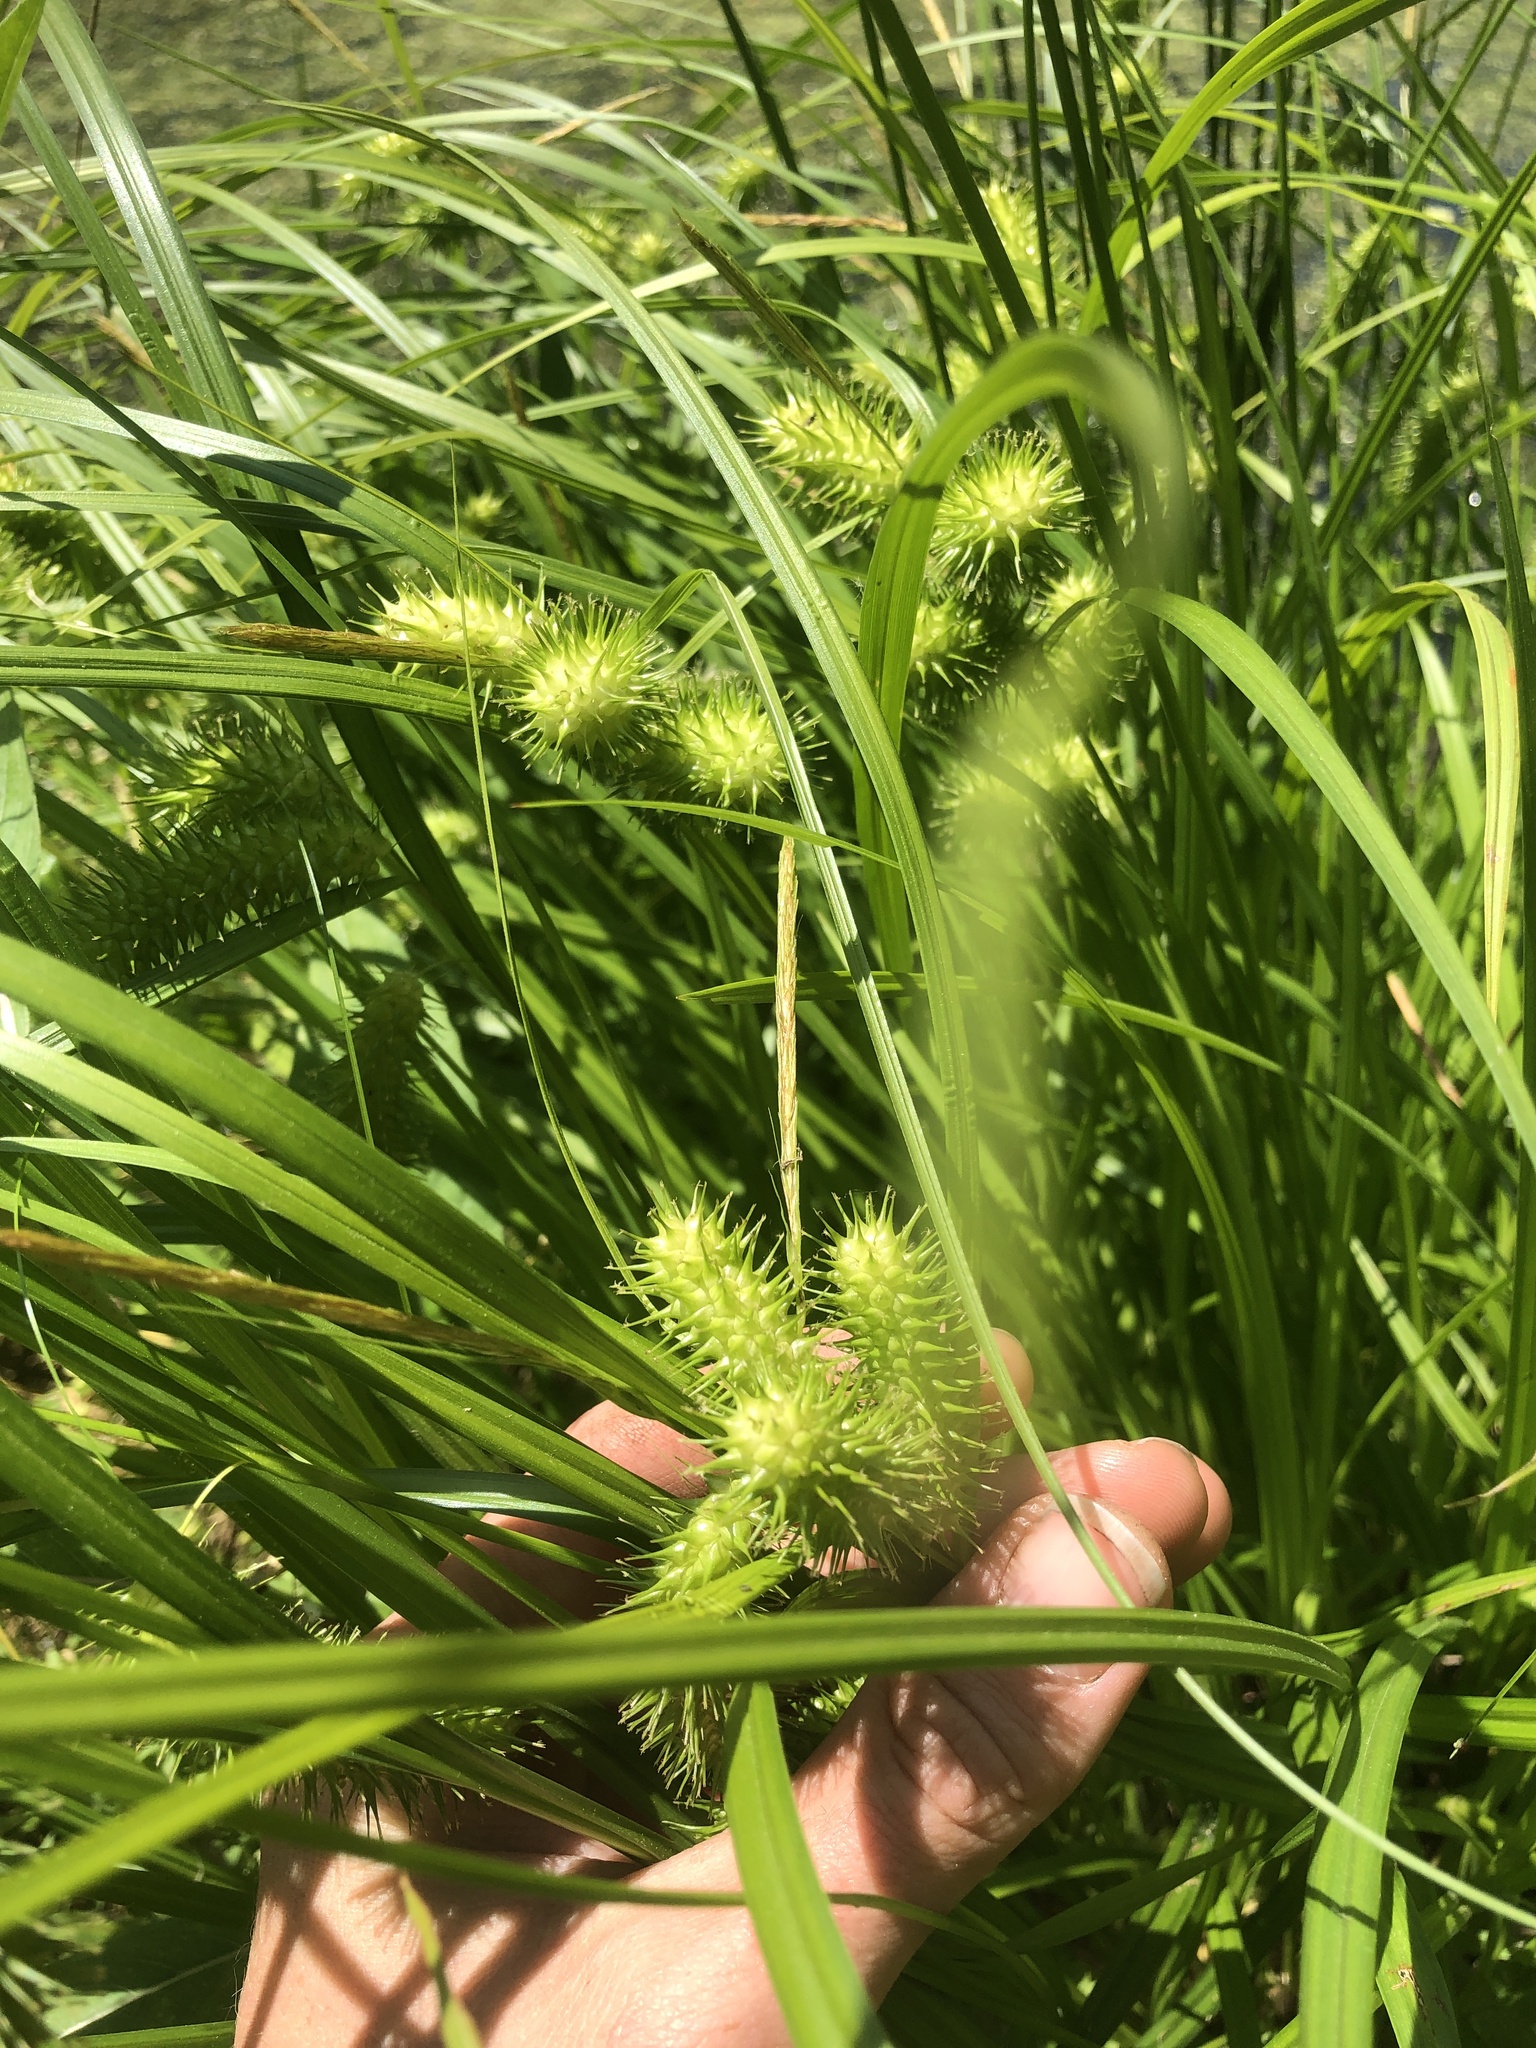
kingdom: Plantae
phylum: Tracheophyta
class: Liliopsida
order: Poales
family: Cyperaceae
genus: Carex
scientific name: Carex lurida
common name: Sallow sedge
